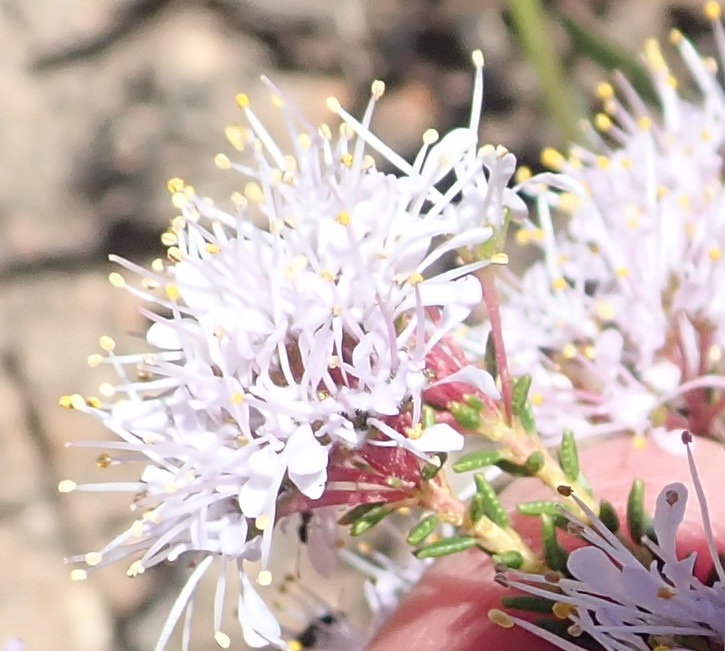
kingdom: Plantae
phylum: Tracheophyta
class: Magnoliopsida
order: Sapindales
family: Rutaceae
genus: Agathosma
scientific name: Agathosma capensis
